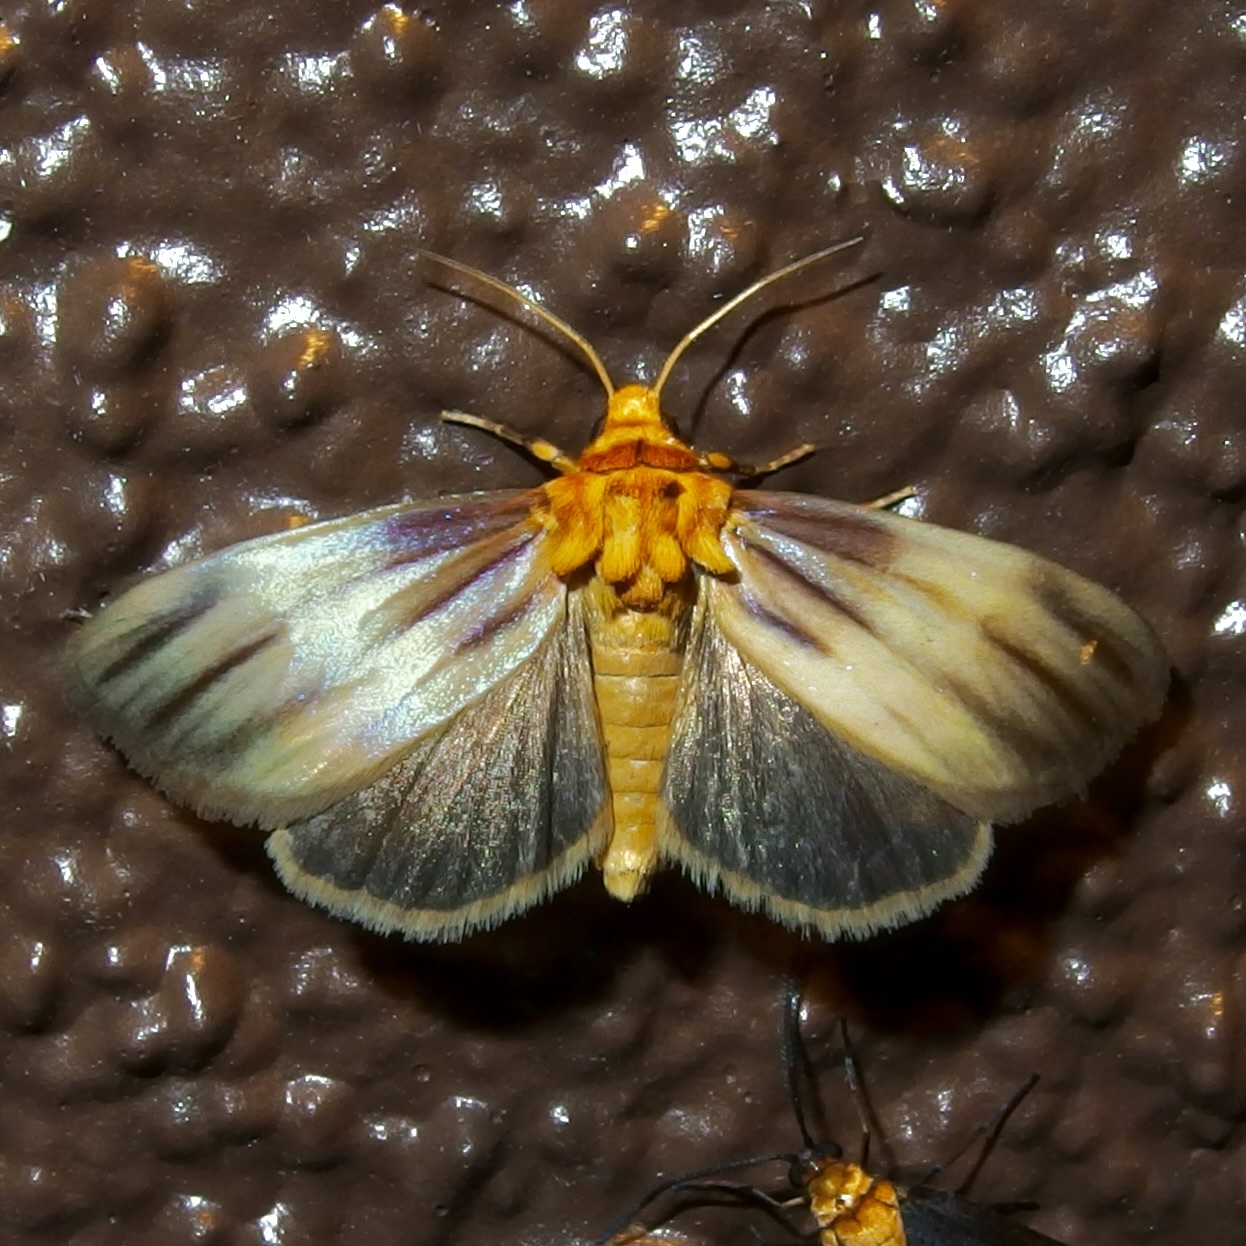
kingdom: Animalia
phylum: Arthropoda
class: Insecta
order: Lepidoptera
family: Noctuidae
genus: Antaplaga
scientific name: Antaplaga plesioglauca
